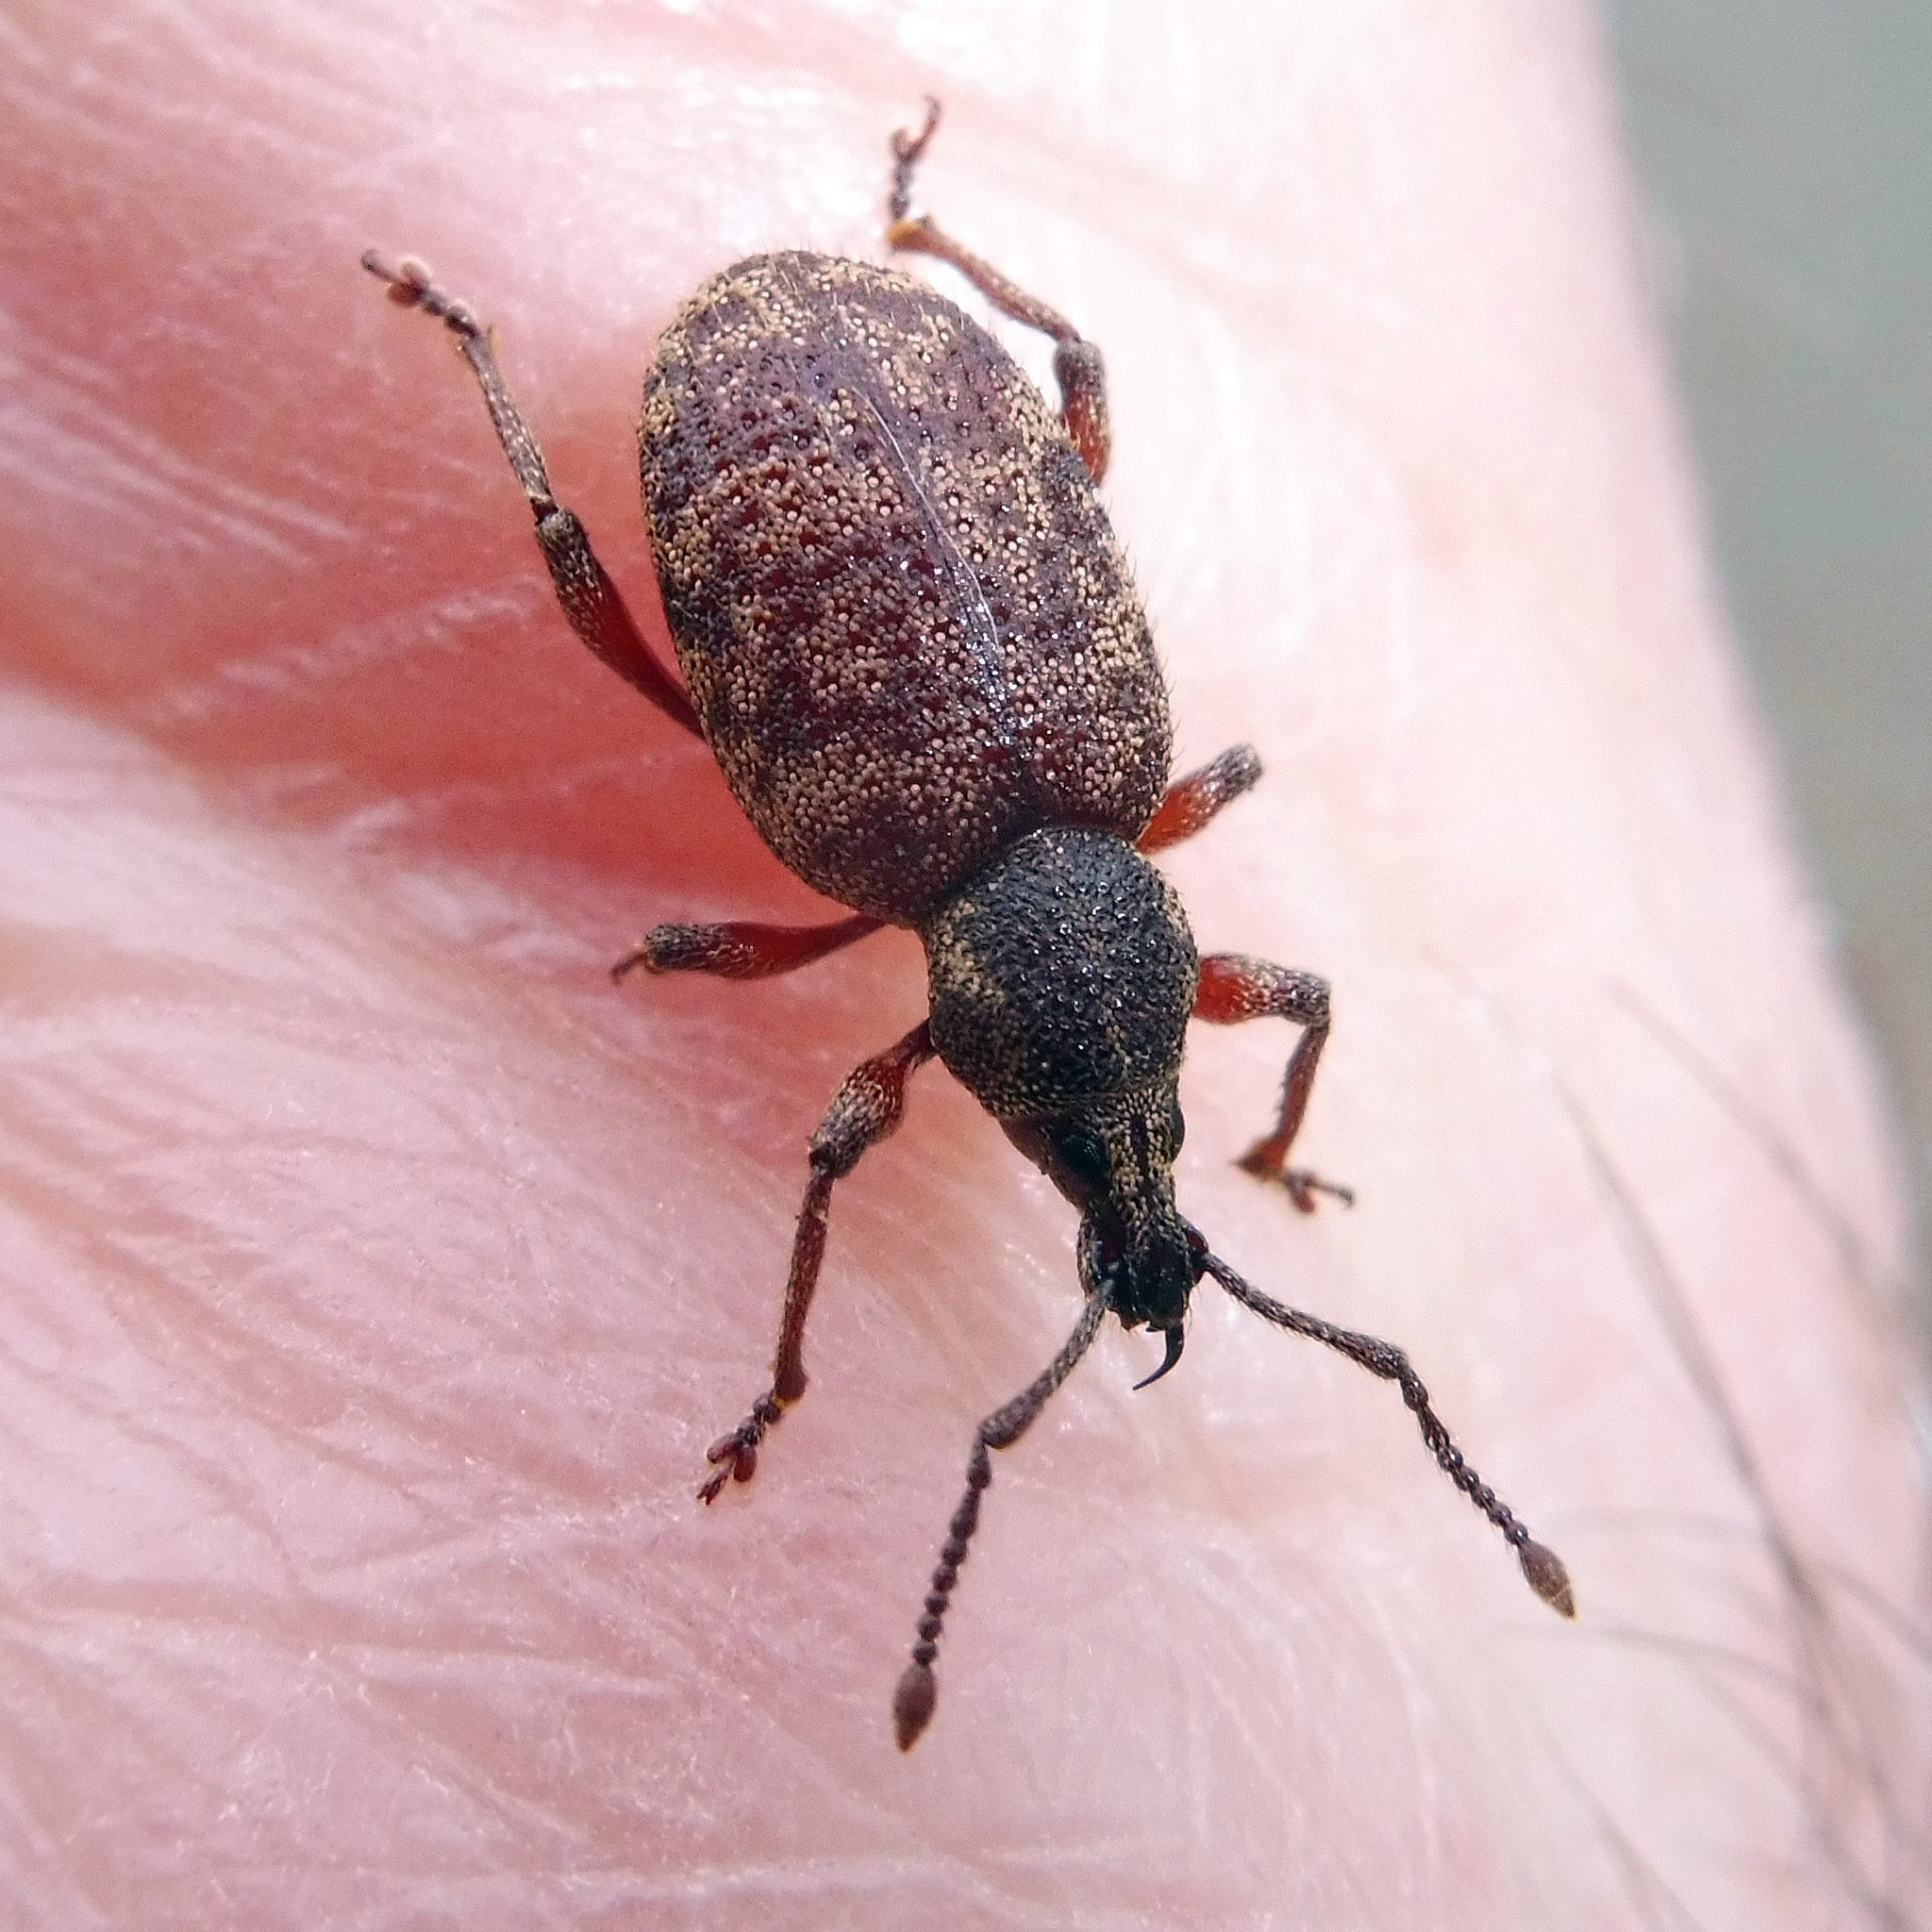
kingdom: Animalia
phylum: Arthropoda
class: Insecta
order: Coleoptera
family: Curculionidae
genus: Otiorhynchus
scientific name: Otiorhynchus singularis
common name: Clay-coloured weevil
